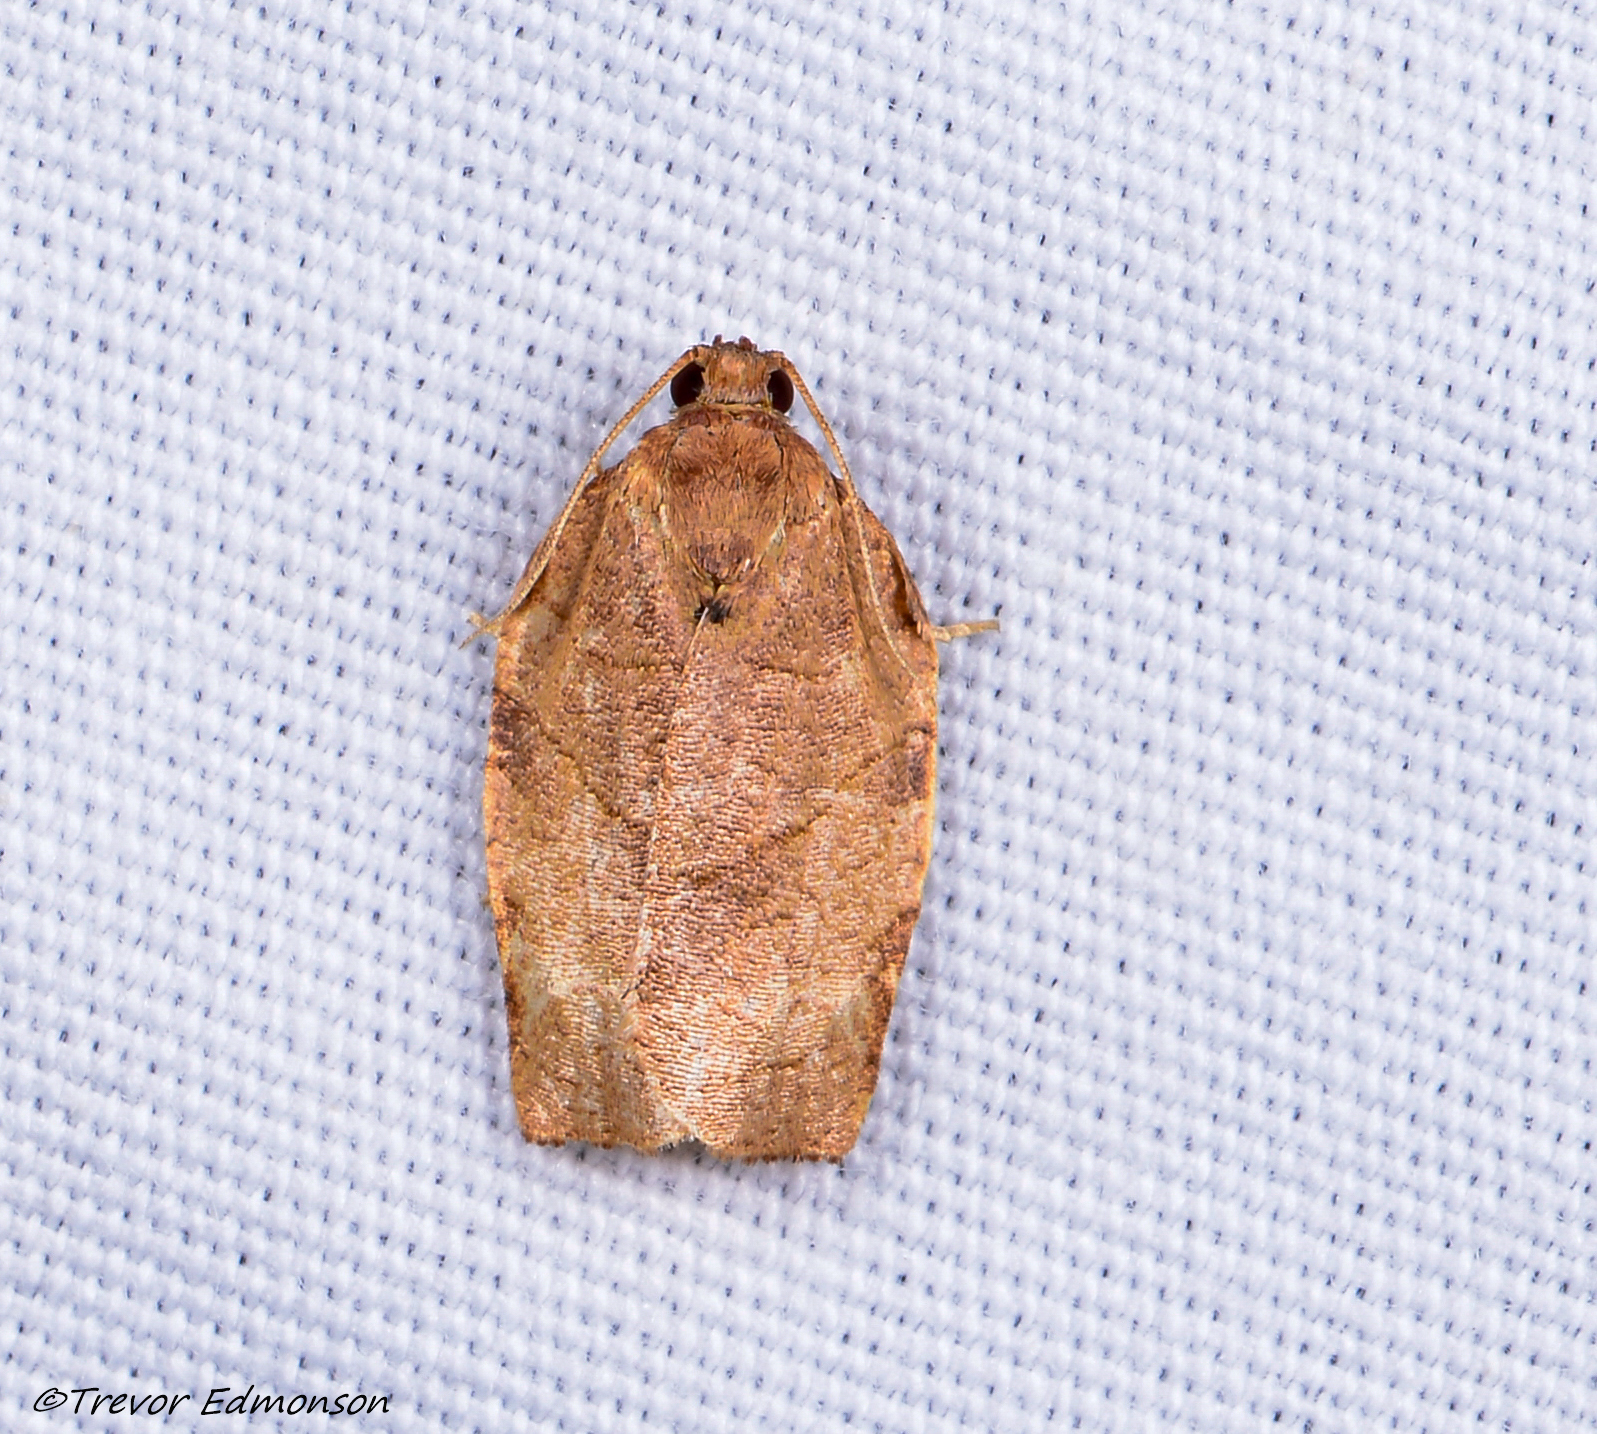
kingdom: Animalia
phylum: Arthropoda
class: Insecta
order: Lepidoptera
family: Tortricidae
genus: Choristoneura
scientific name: Choristoneura rosaceana
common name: Oblique-banded leafroller moth
